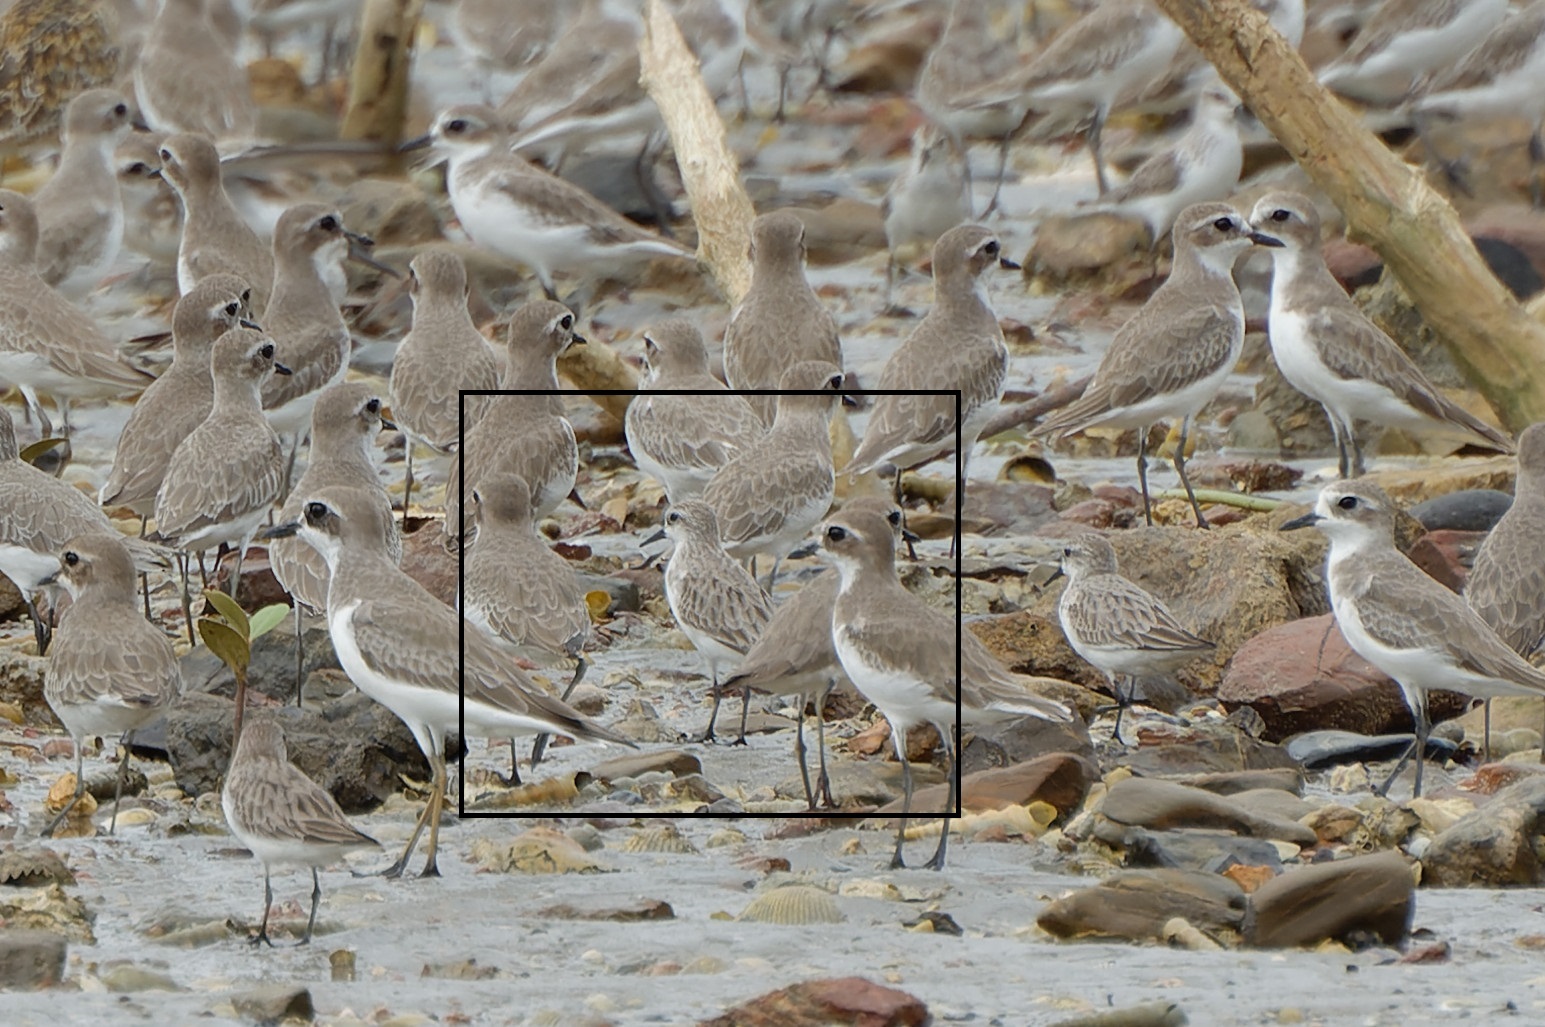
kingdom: Animalia
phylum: Chordata
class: Aves
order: Charadriiformes
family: Scolopacidae
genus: Calidris
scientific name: Calidris ruficollis
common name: Red-necked stint
